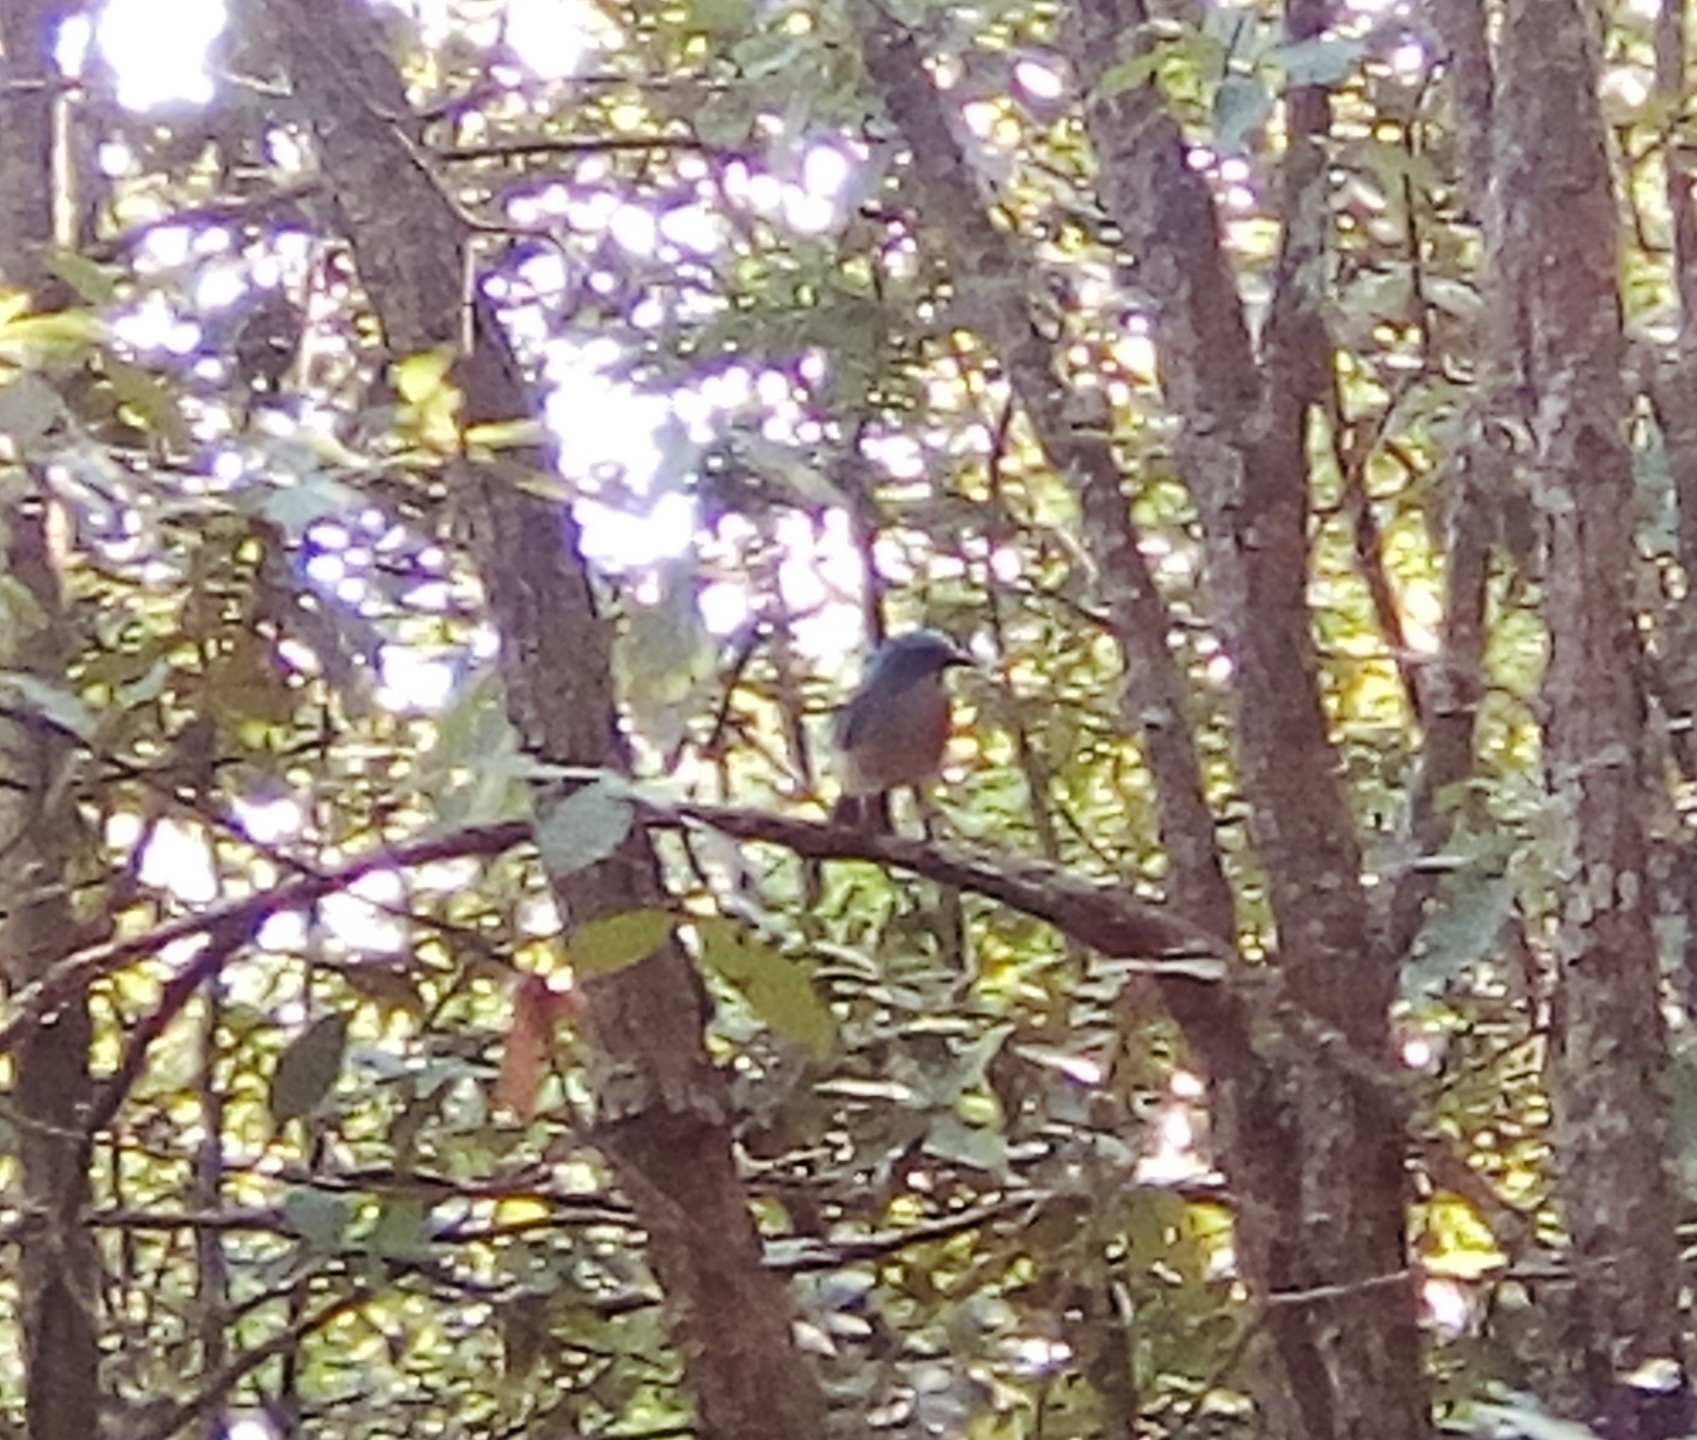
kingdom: Animalia
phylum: Chordata
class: Aves
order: Passeriformes
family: Corvidae
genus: Aphelocoma
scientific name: Aphelocoma wollweberi
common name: Mexican jay
